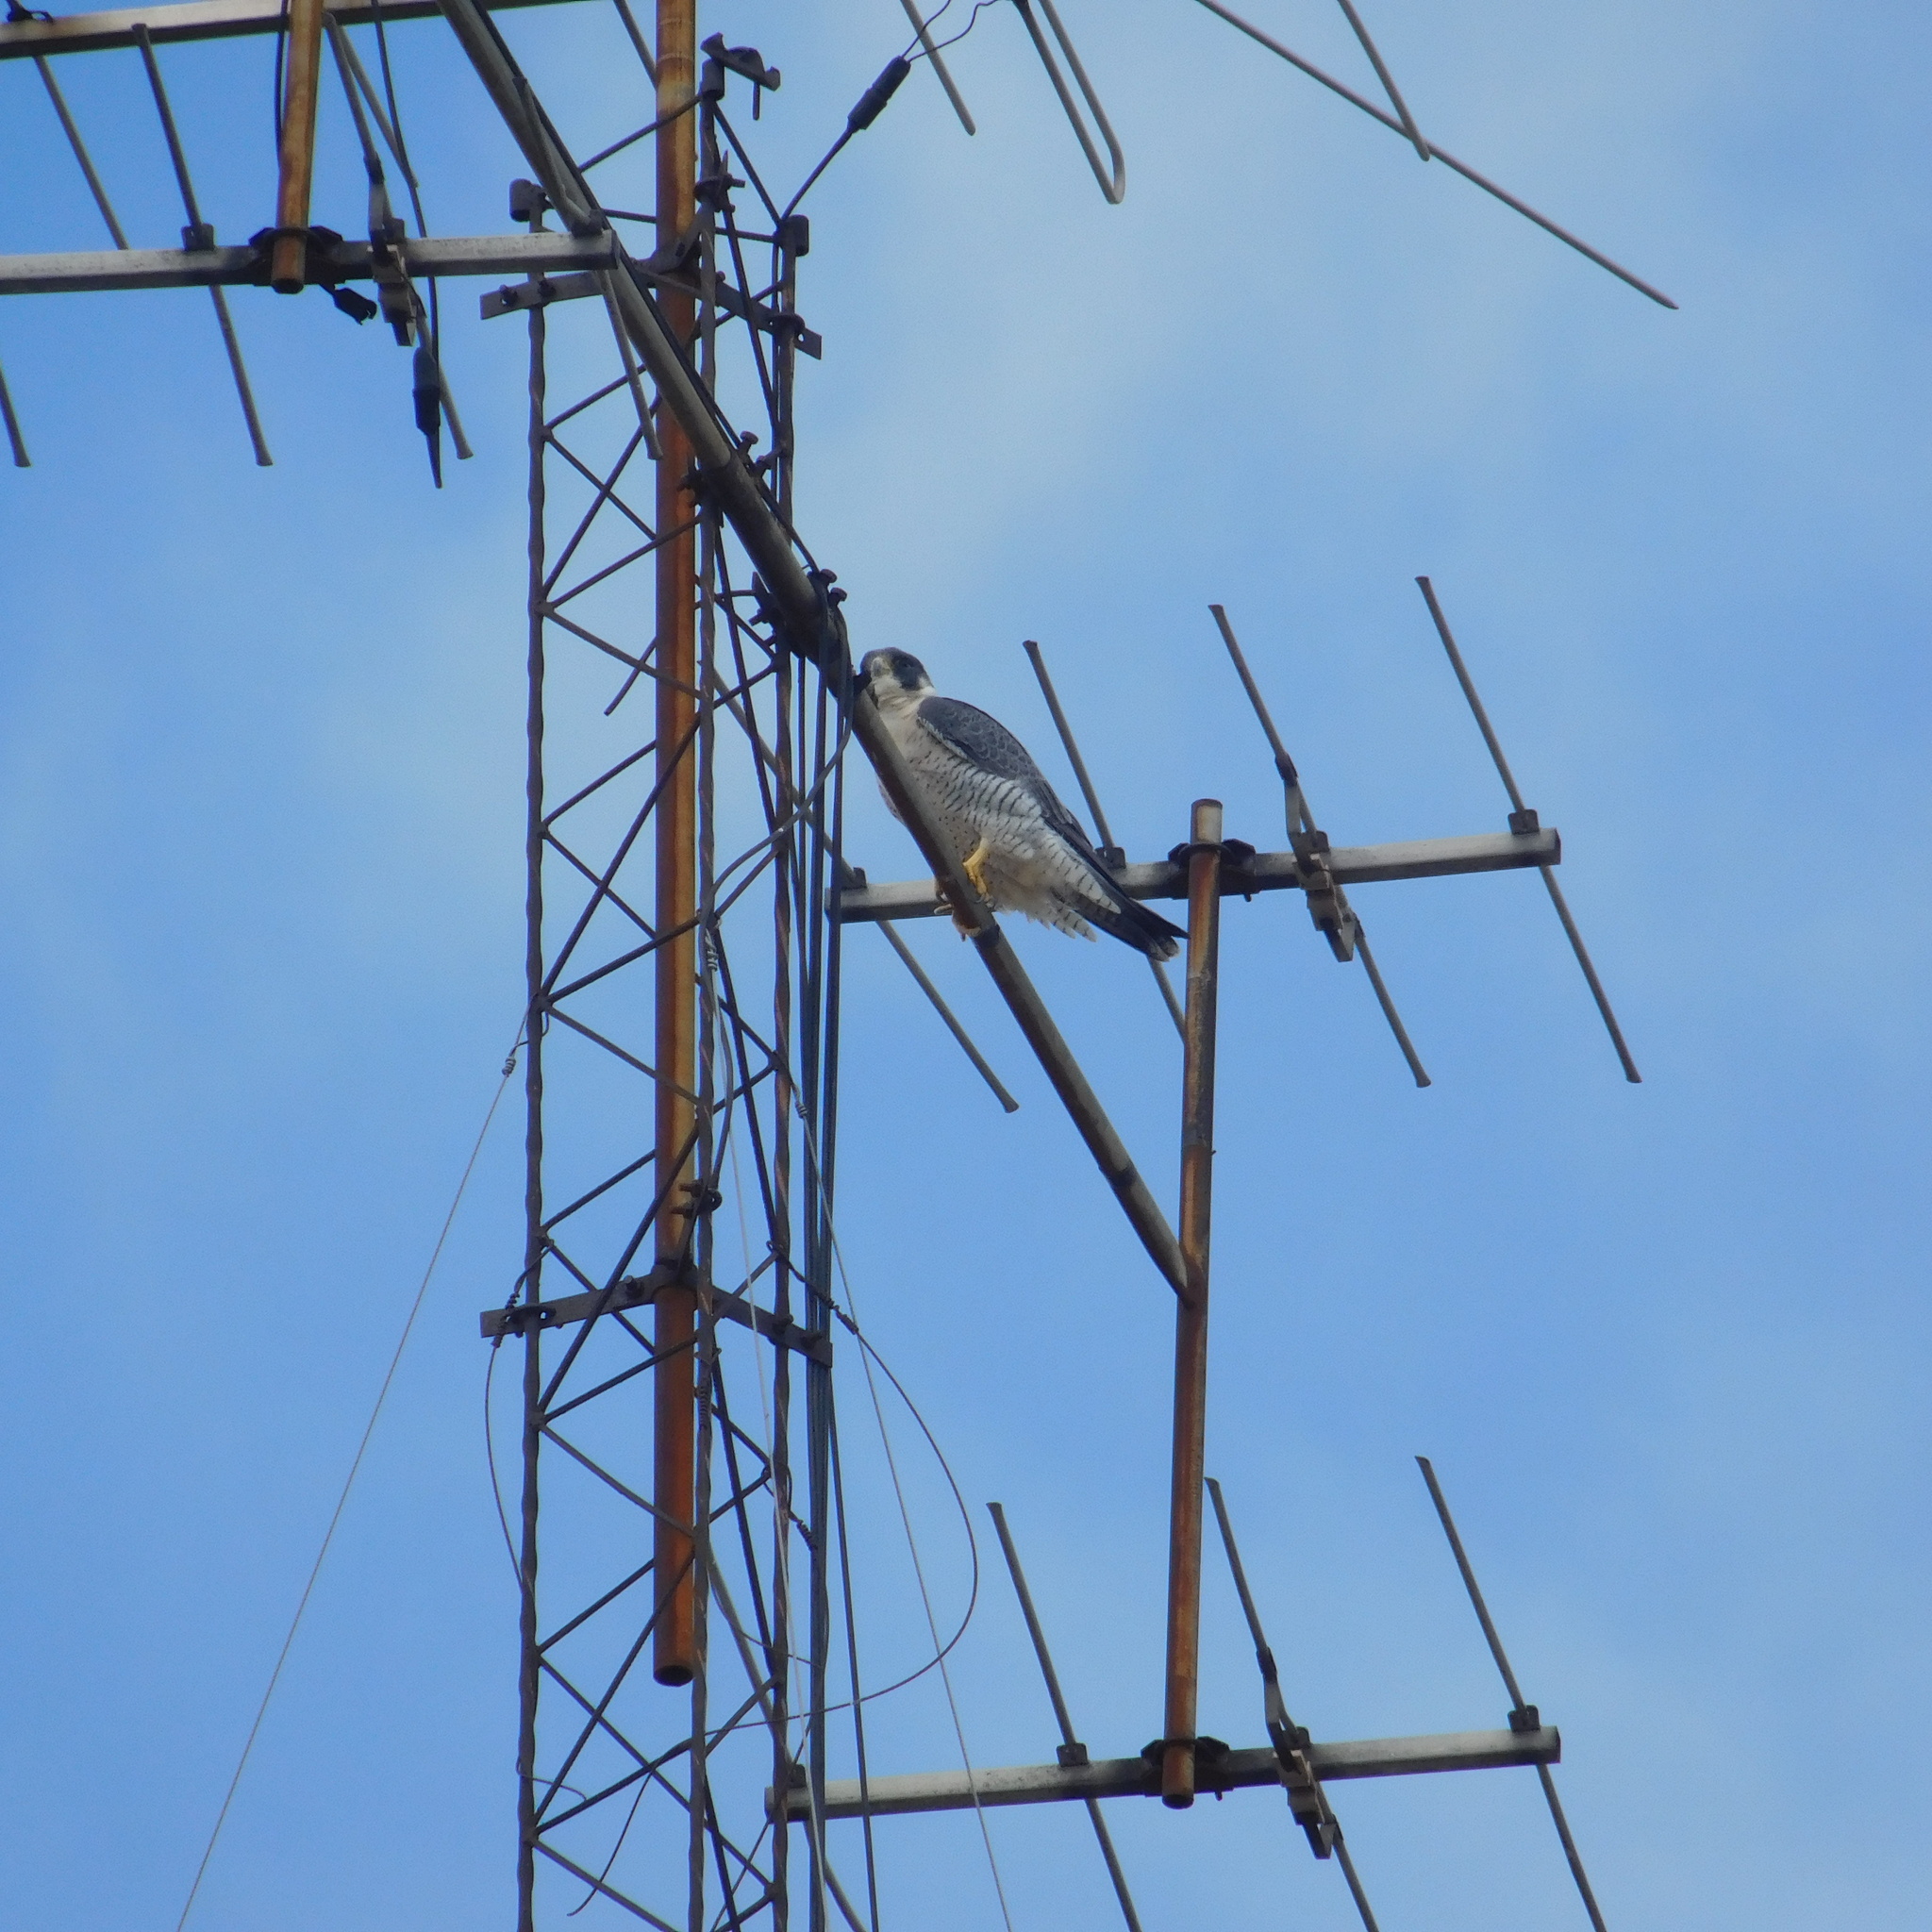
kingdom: Animalia
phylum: Chordata
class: Aves
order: Falconiformes
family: Falconidae
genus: Falco
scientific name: Falco peregrinus
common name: Peregrine falcon
